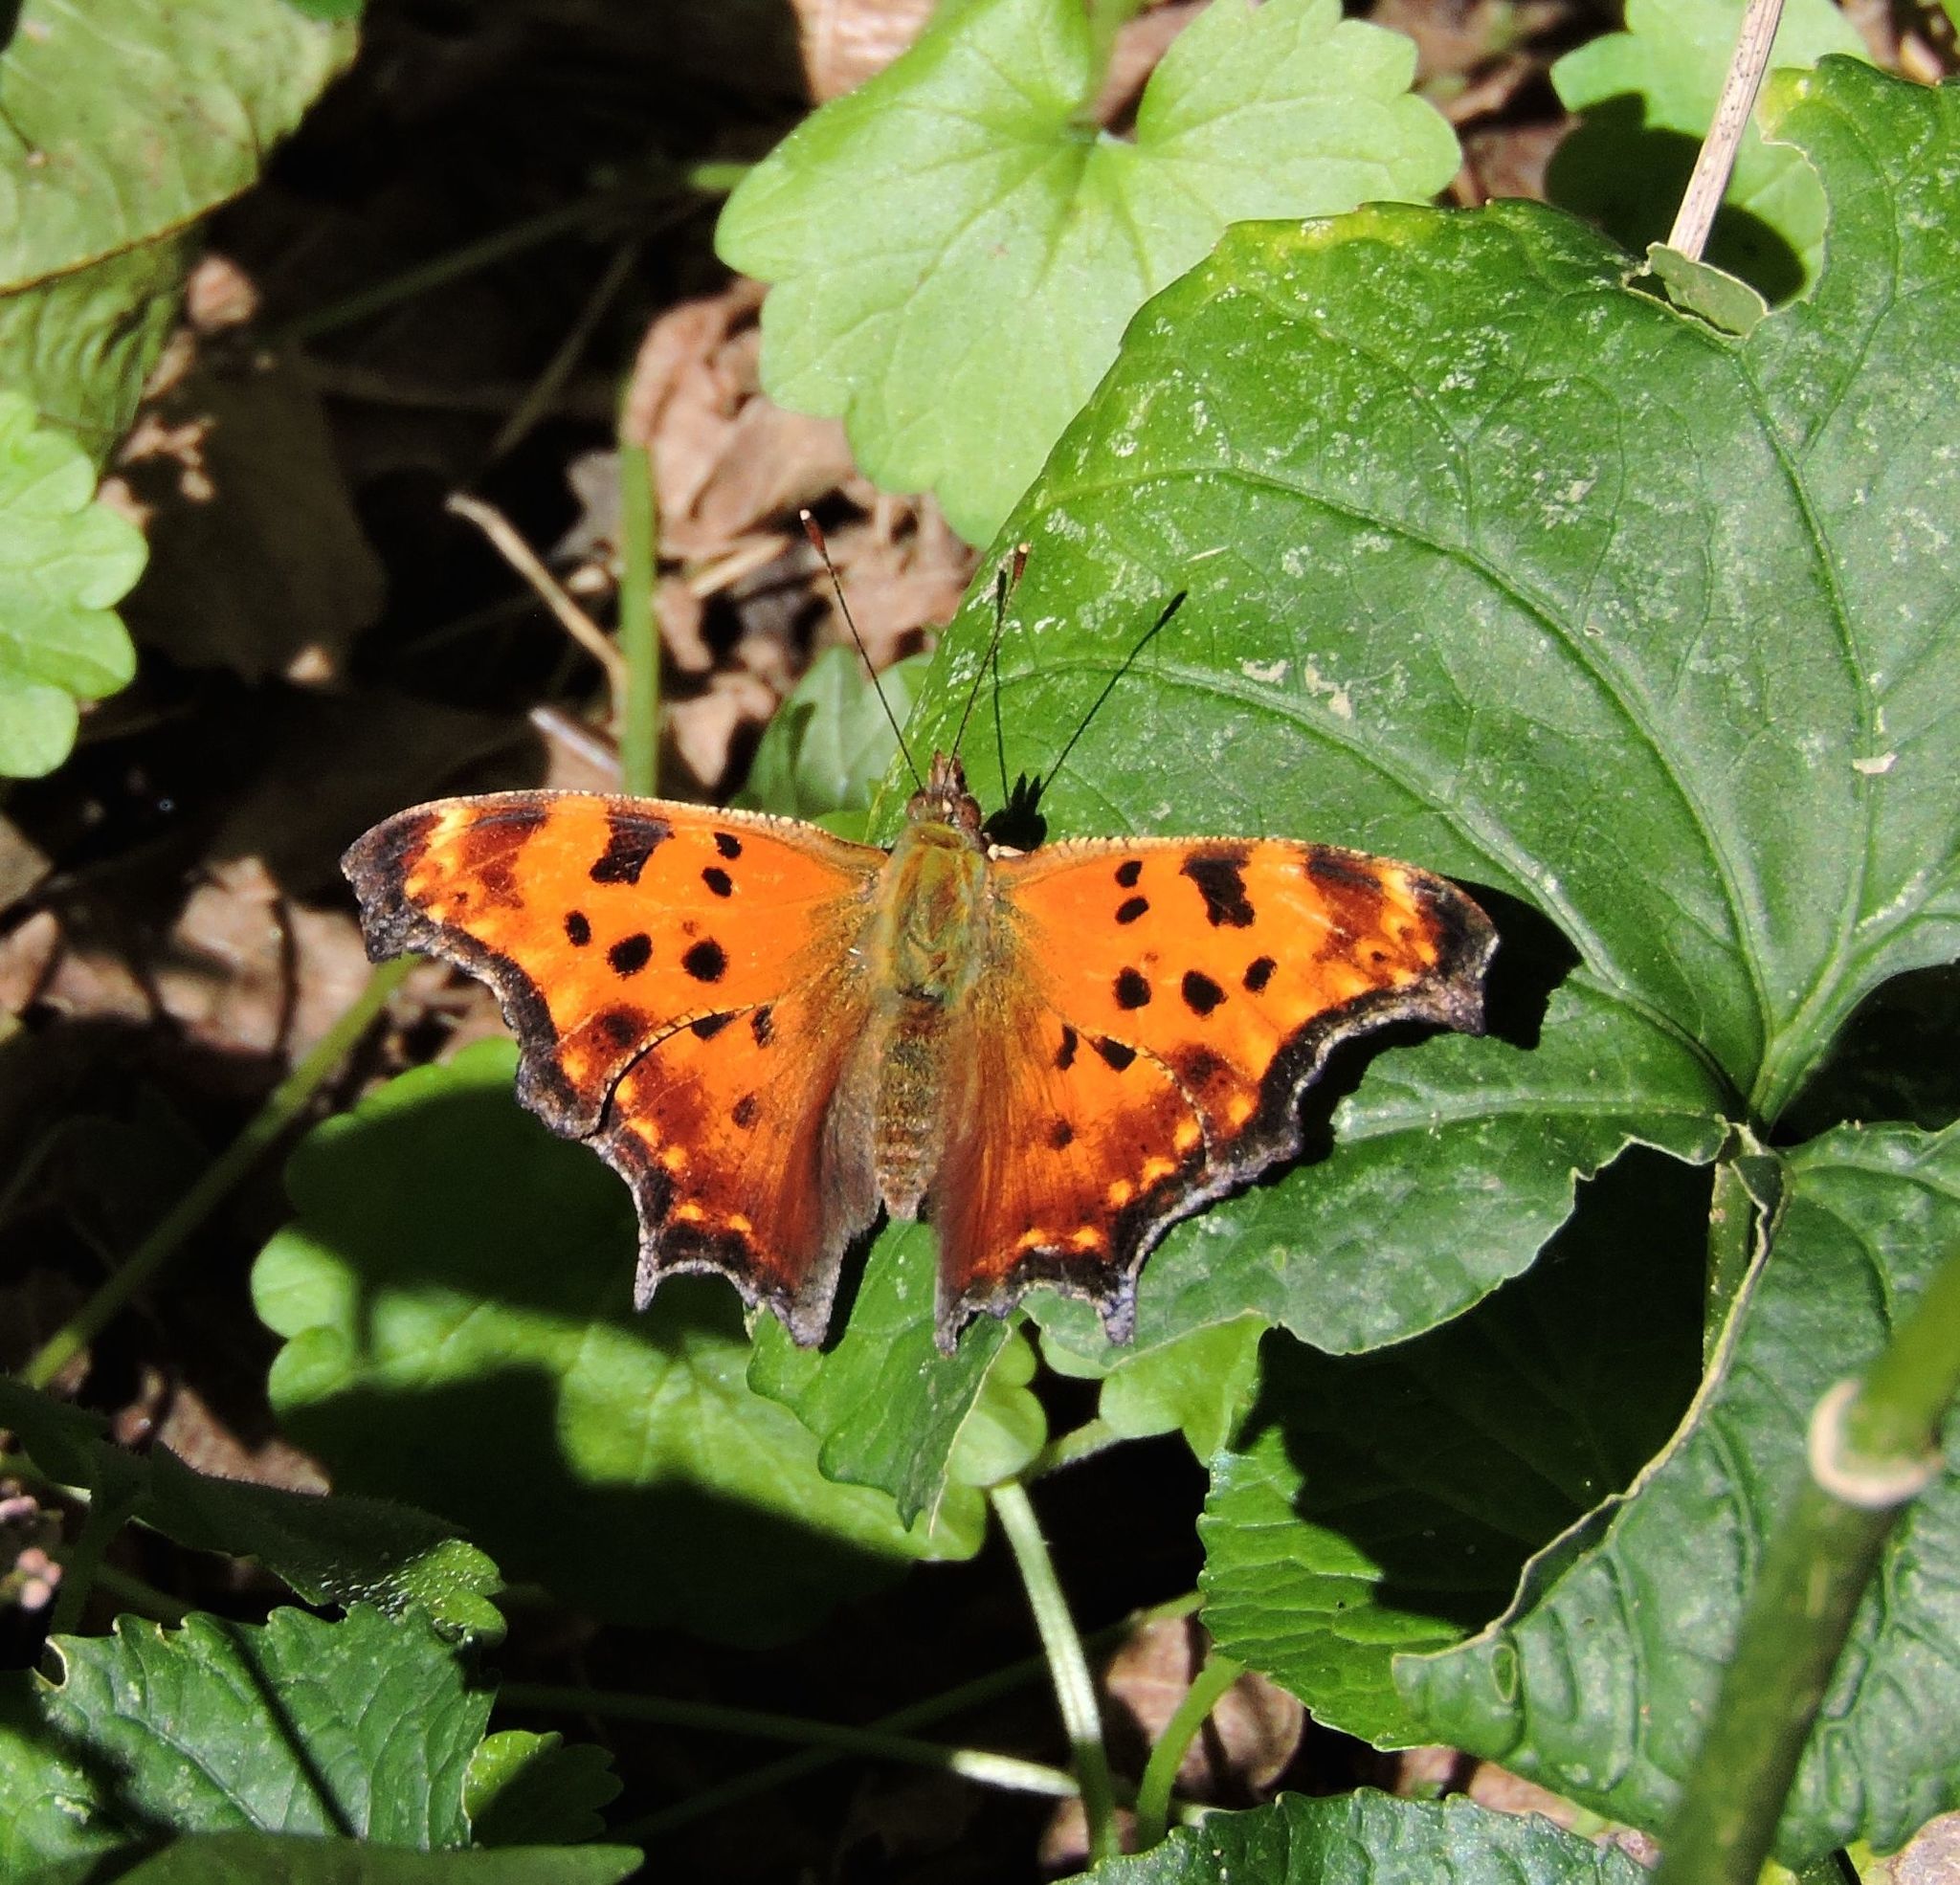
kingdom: Animalia
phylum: Arthropoda
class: Insecta
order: Lepidoptera
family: Nymphalidae
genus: Polygonia
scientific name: Polygonia comma
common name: Eastern comma
